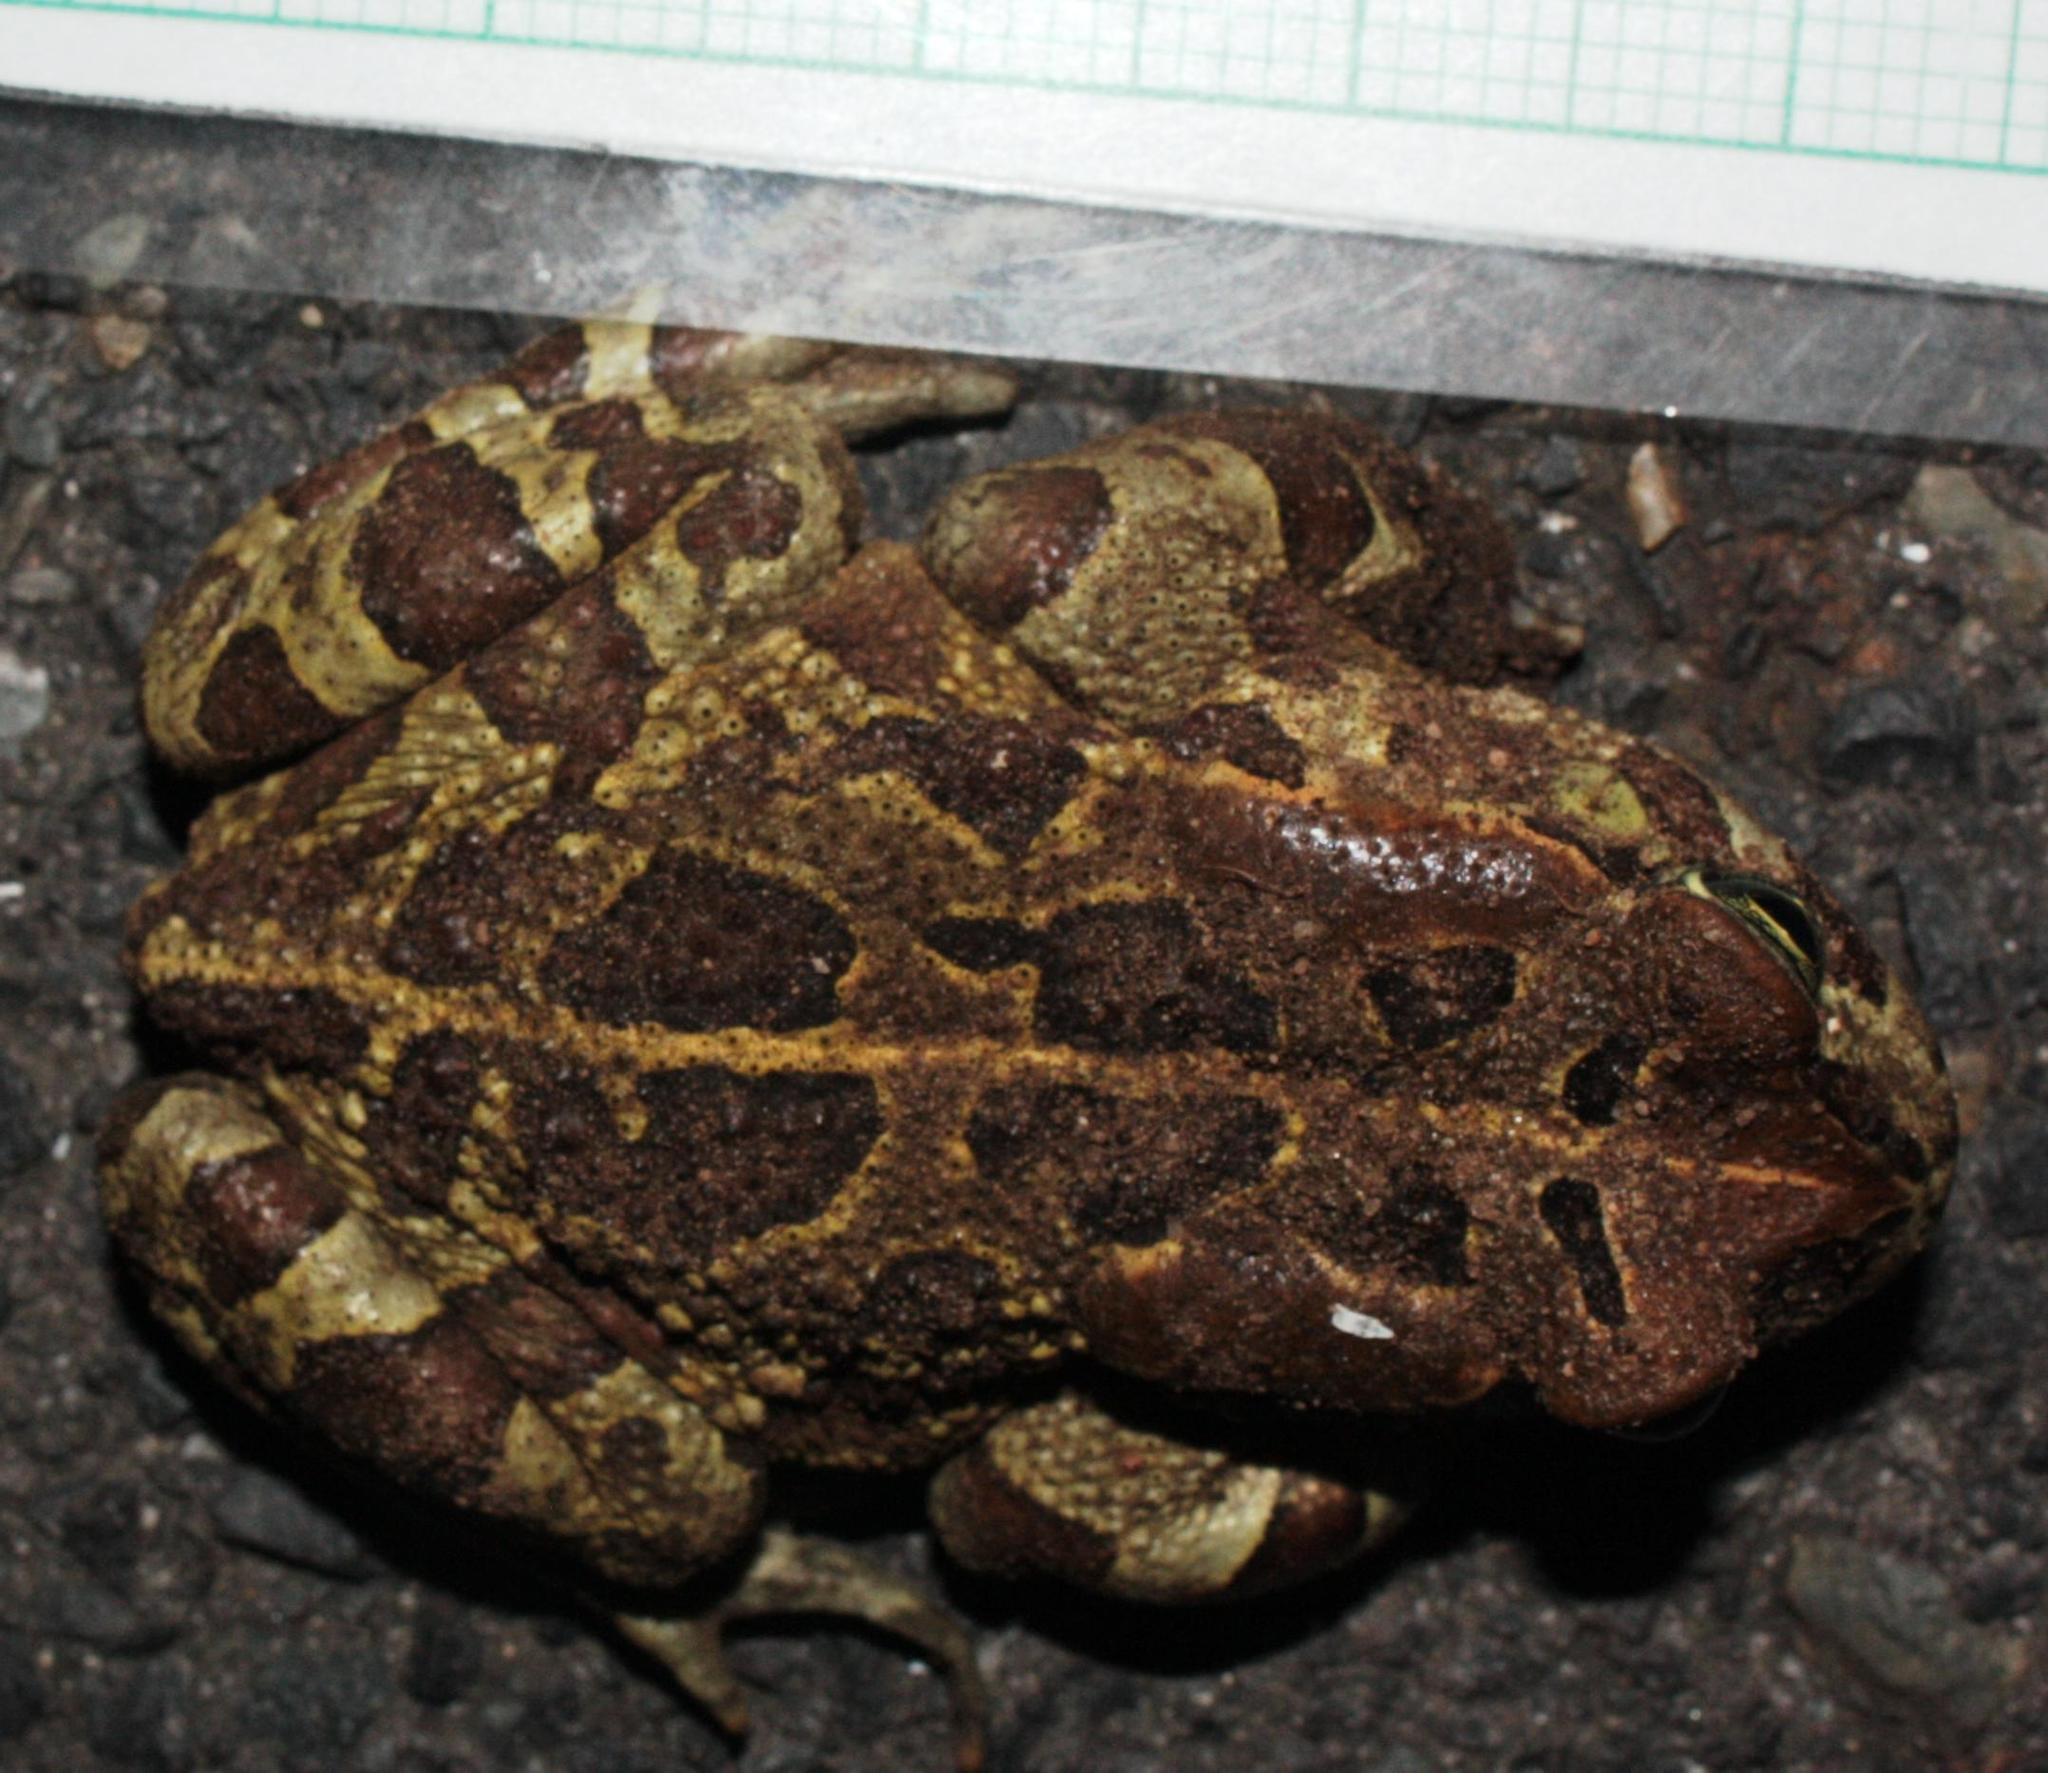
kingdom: Animalia
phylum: Chordata
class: Amphibia
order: Anura
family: Bufonidae
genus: Sclerophrys
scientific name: Sclerophrys pantherina
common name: Panther toad
